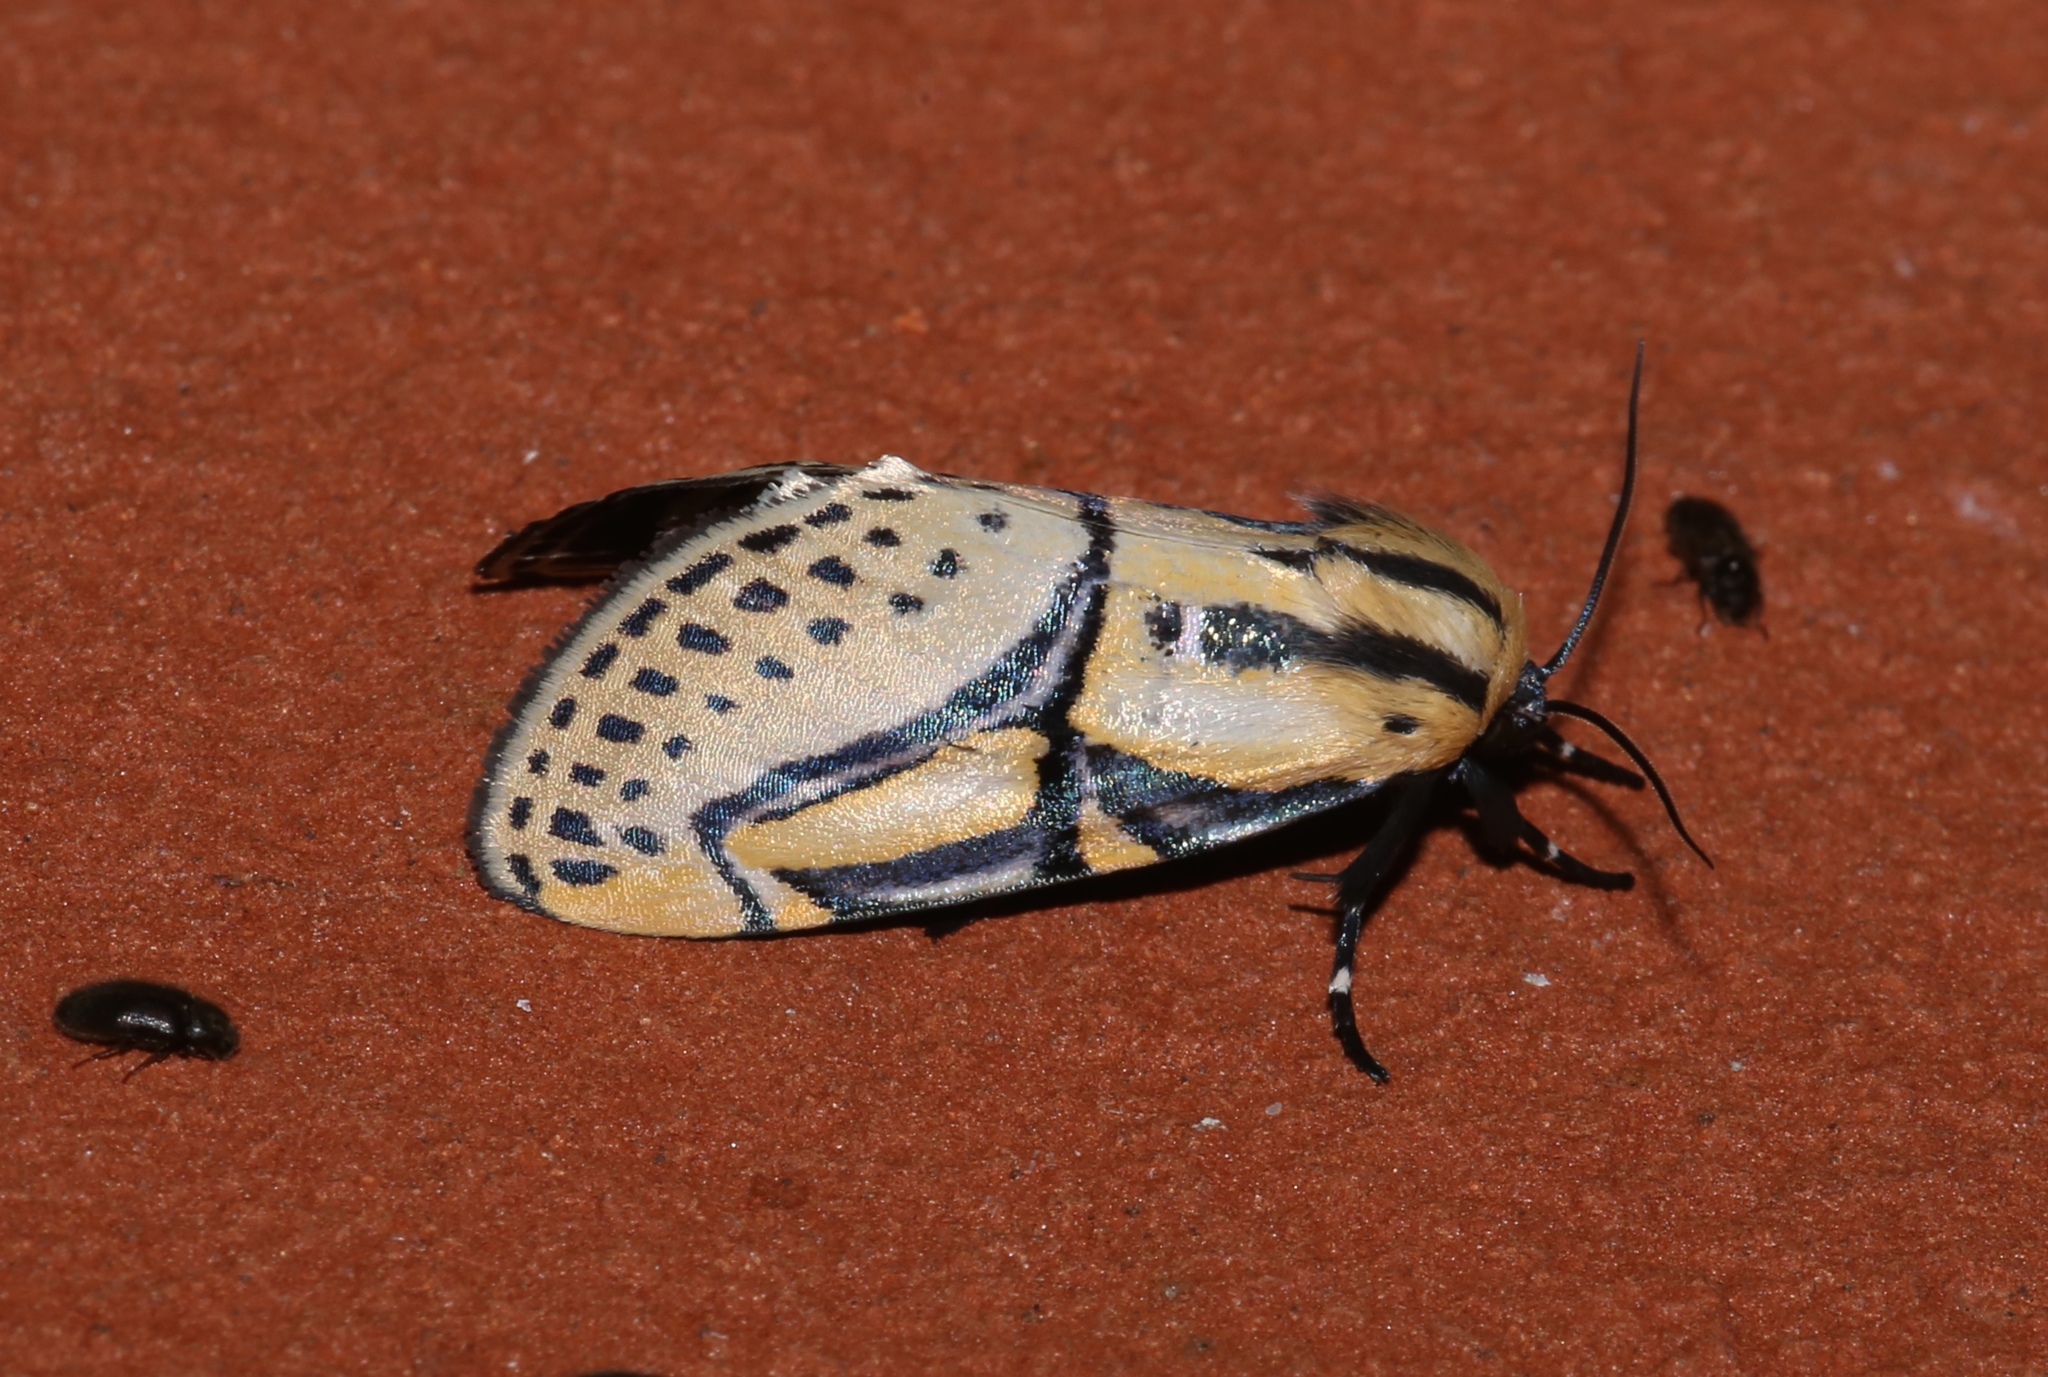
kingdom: Animalia
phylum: Arthropoda
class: Insecta
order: Lepidoptera
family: Erebidae
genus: Diphthera
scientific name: Diphthera festiva
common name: Hieroglyphic moth
